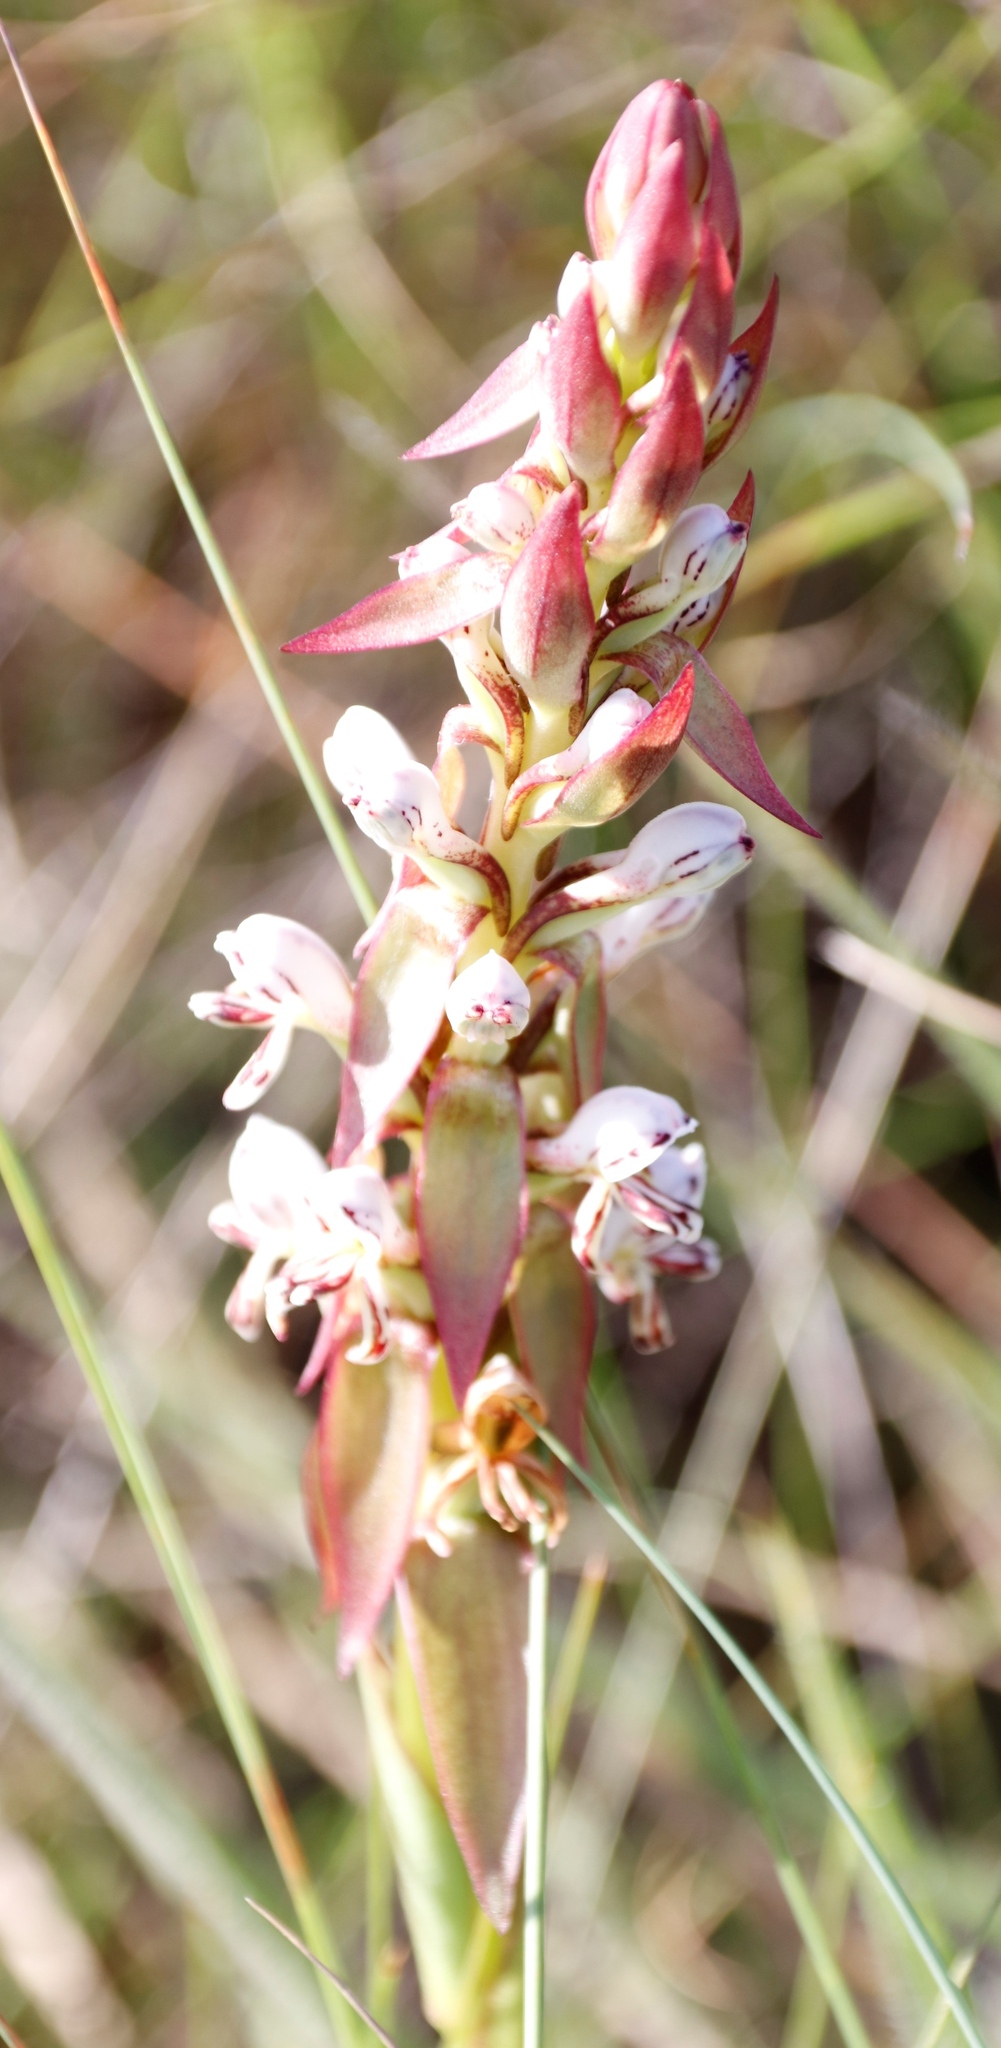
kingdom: Plantae
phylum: Tracheophyta
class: Liliopsida
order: Asparagales
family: Orchidaceae
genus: Satyrium
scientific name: Satyrium cristatum
